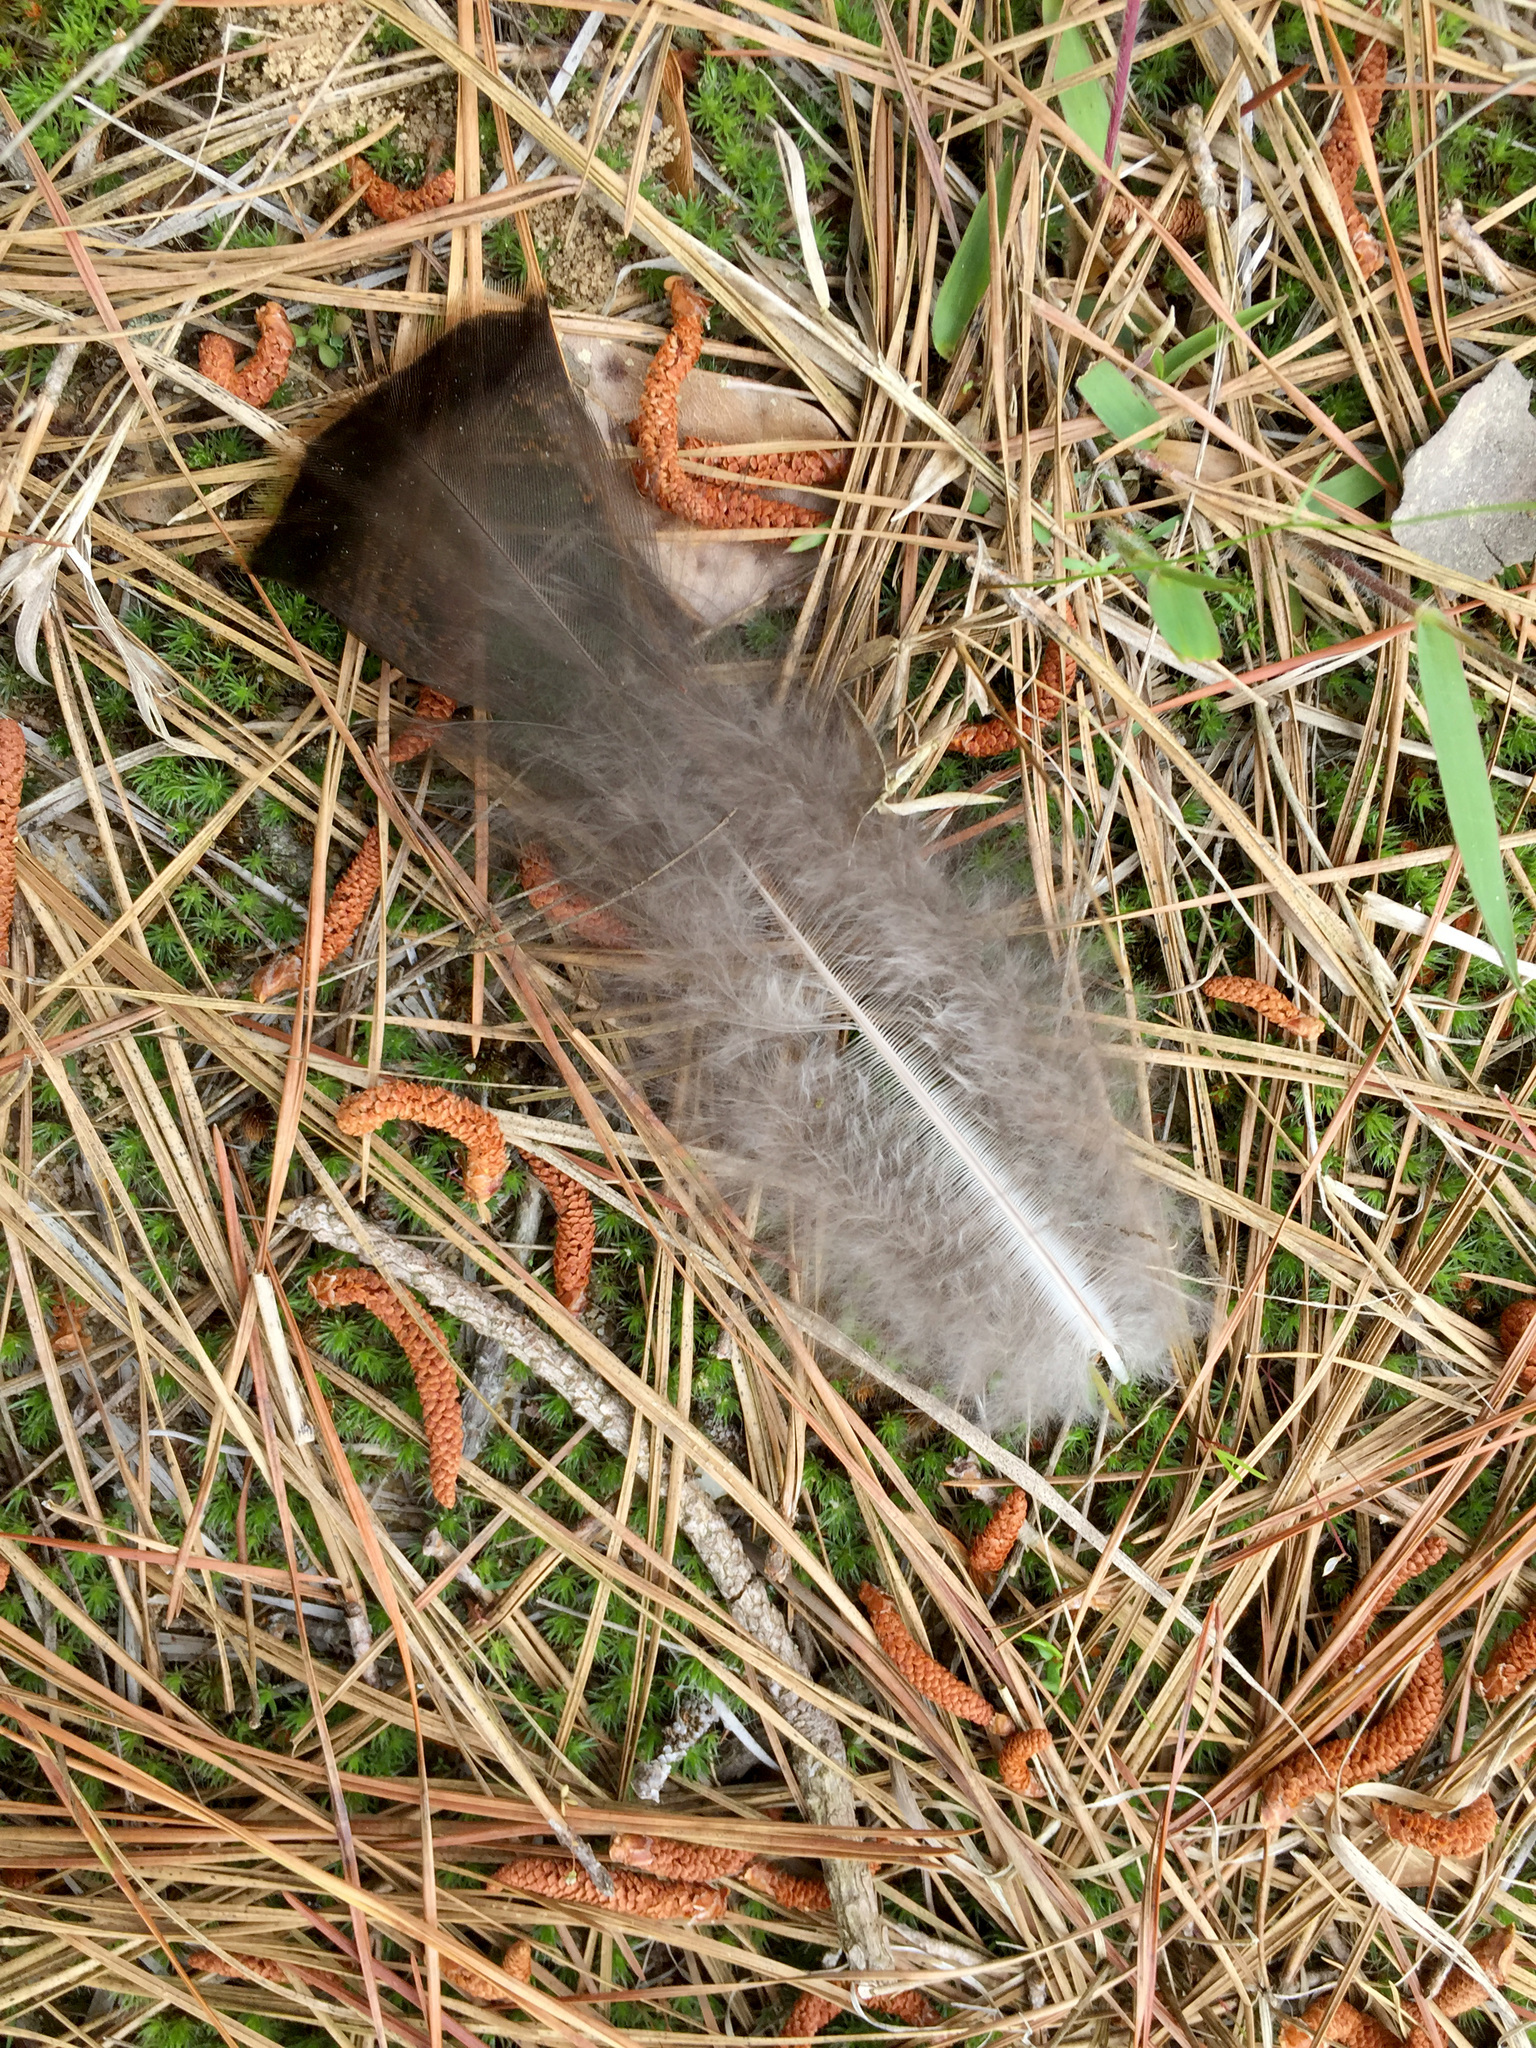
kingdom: Animalia
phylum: Chordata
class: Aves
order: Galliformes
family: Phasianidae
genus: Meleagris
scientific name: Meleagris gallopavo
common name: Wild turkey
